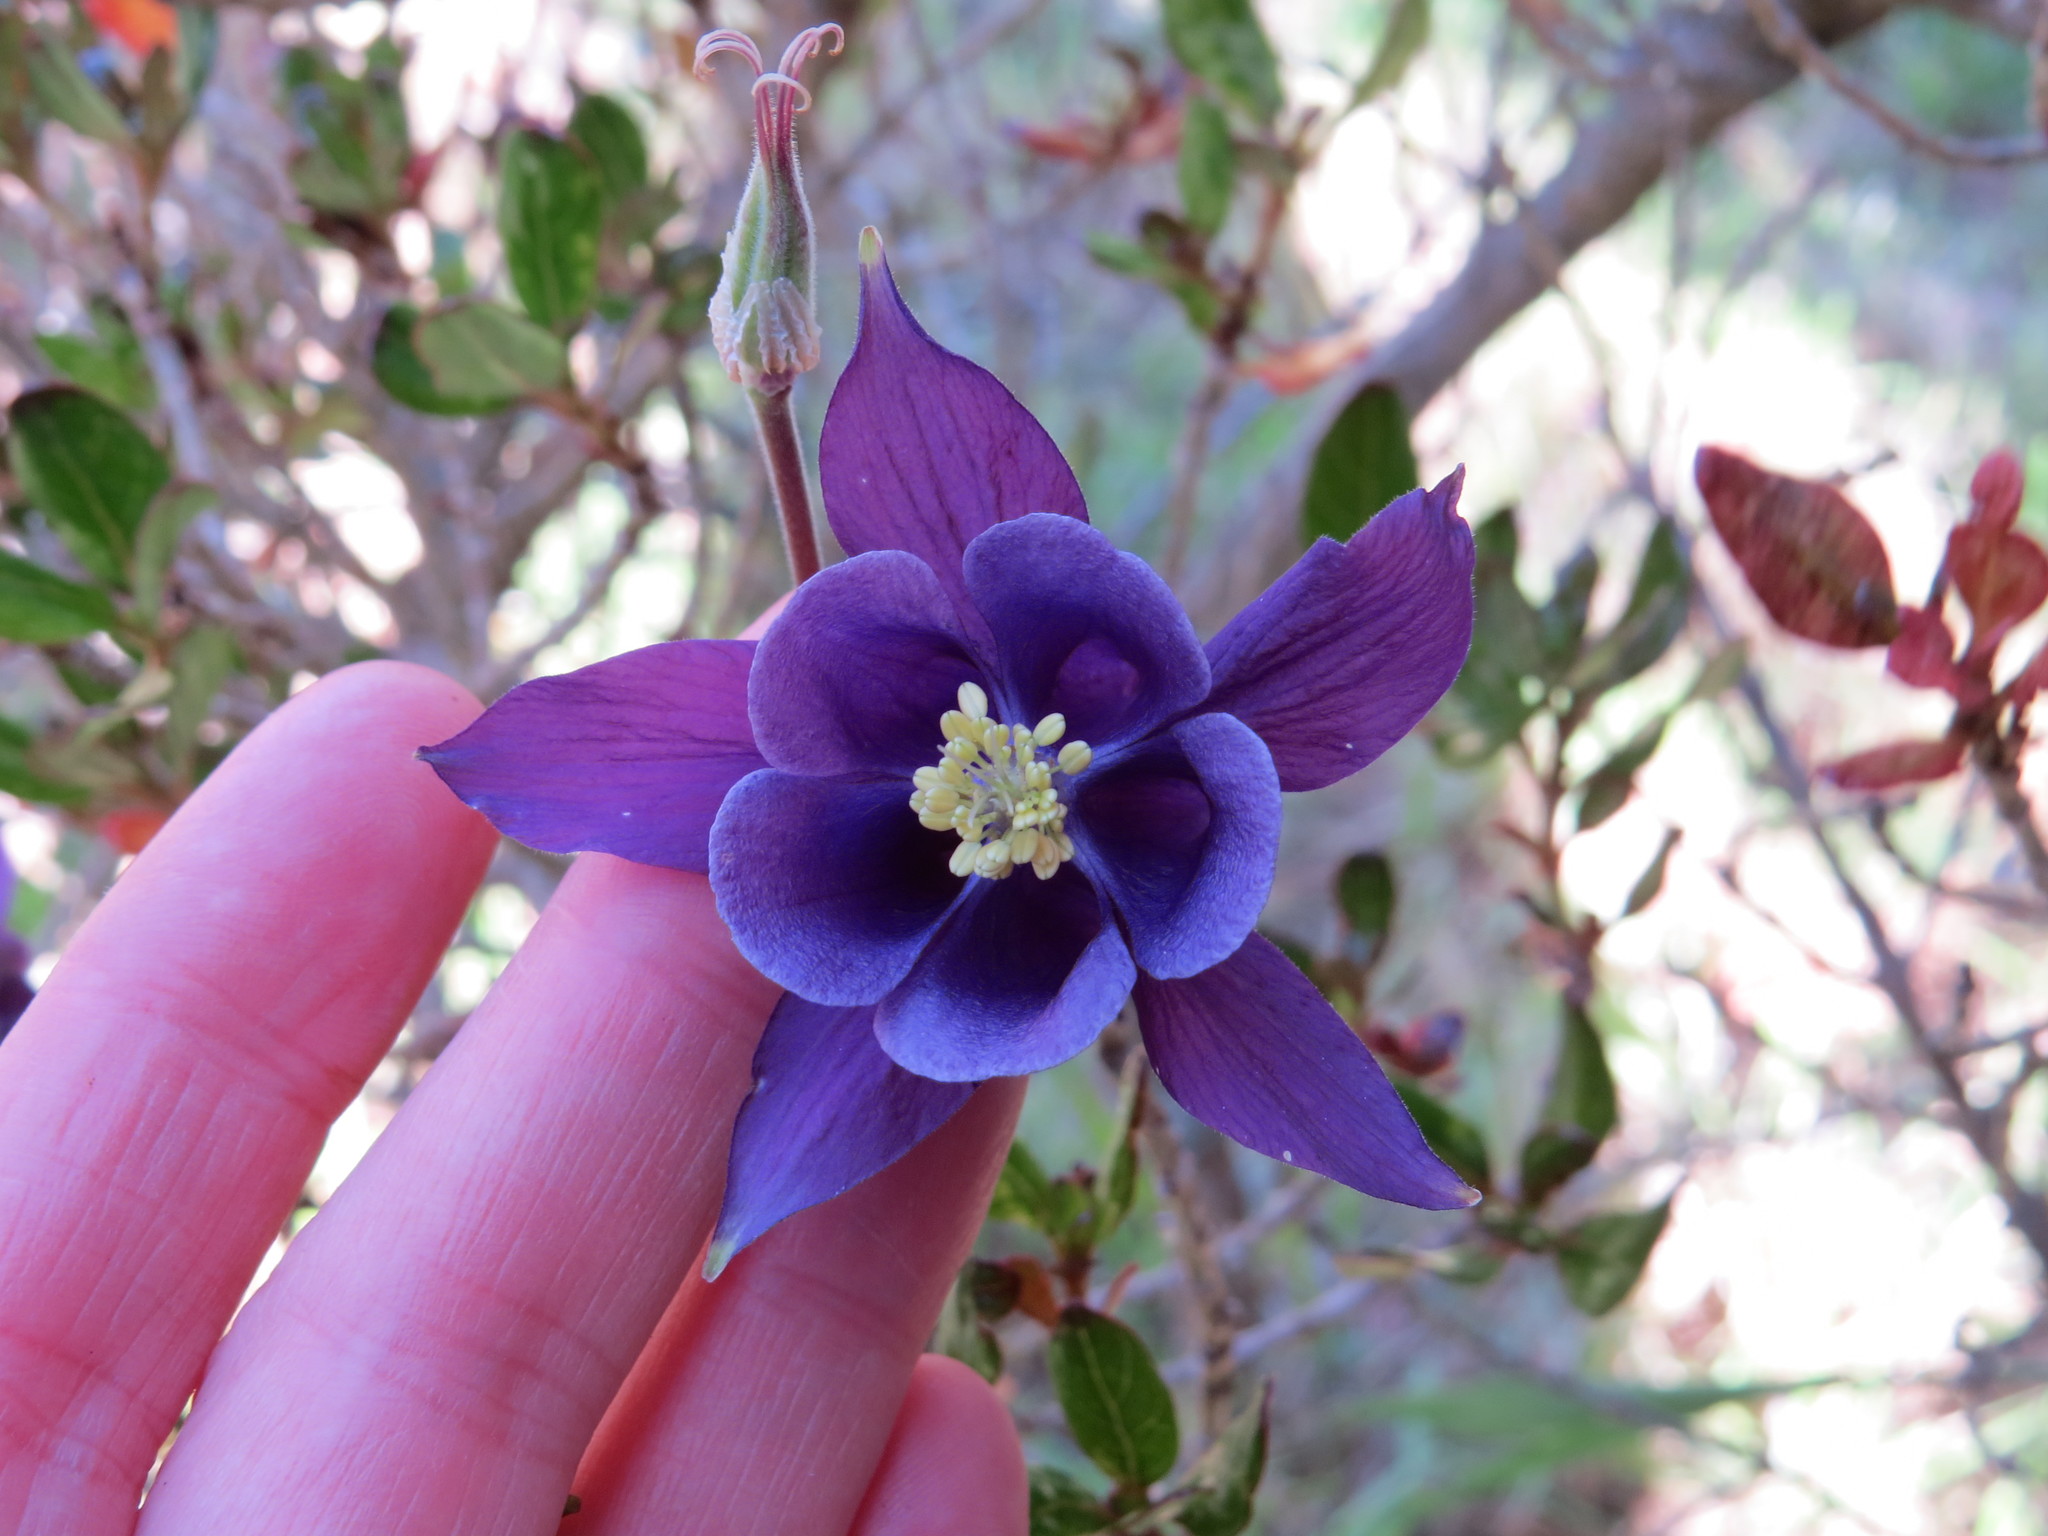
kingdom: Plantae
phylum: Tracheophyta
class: Magnoliopsida
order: Ranunculales
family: Ranunculaceae
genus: Aquilegia
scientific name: Aquilegia vulgaris
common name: Columbine
